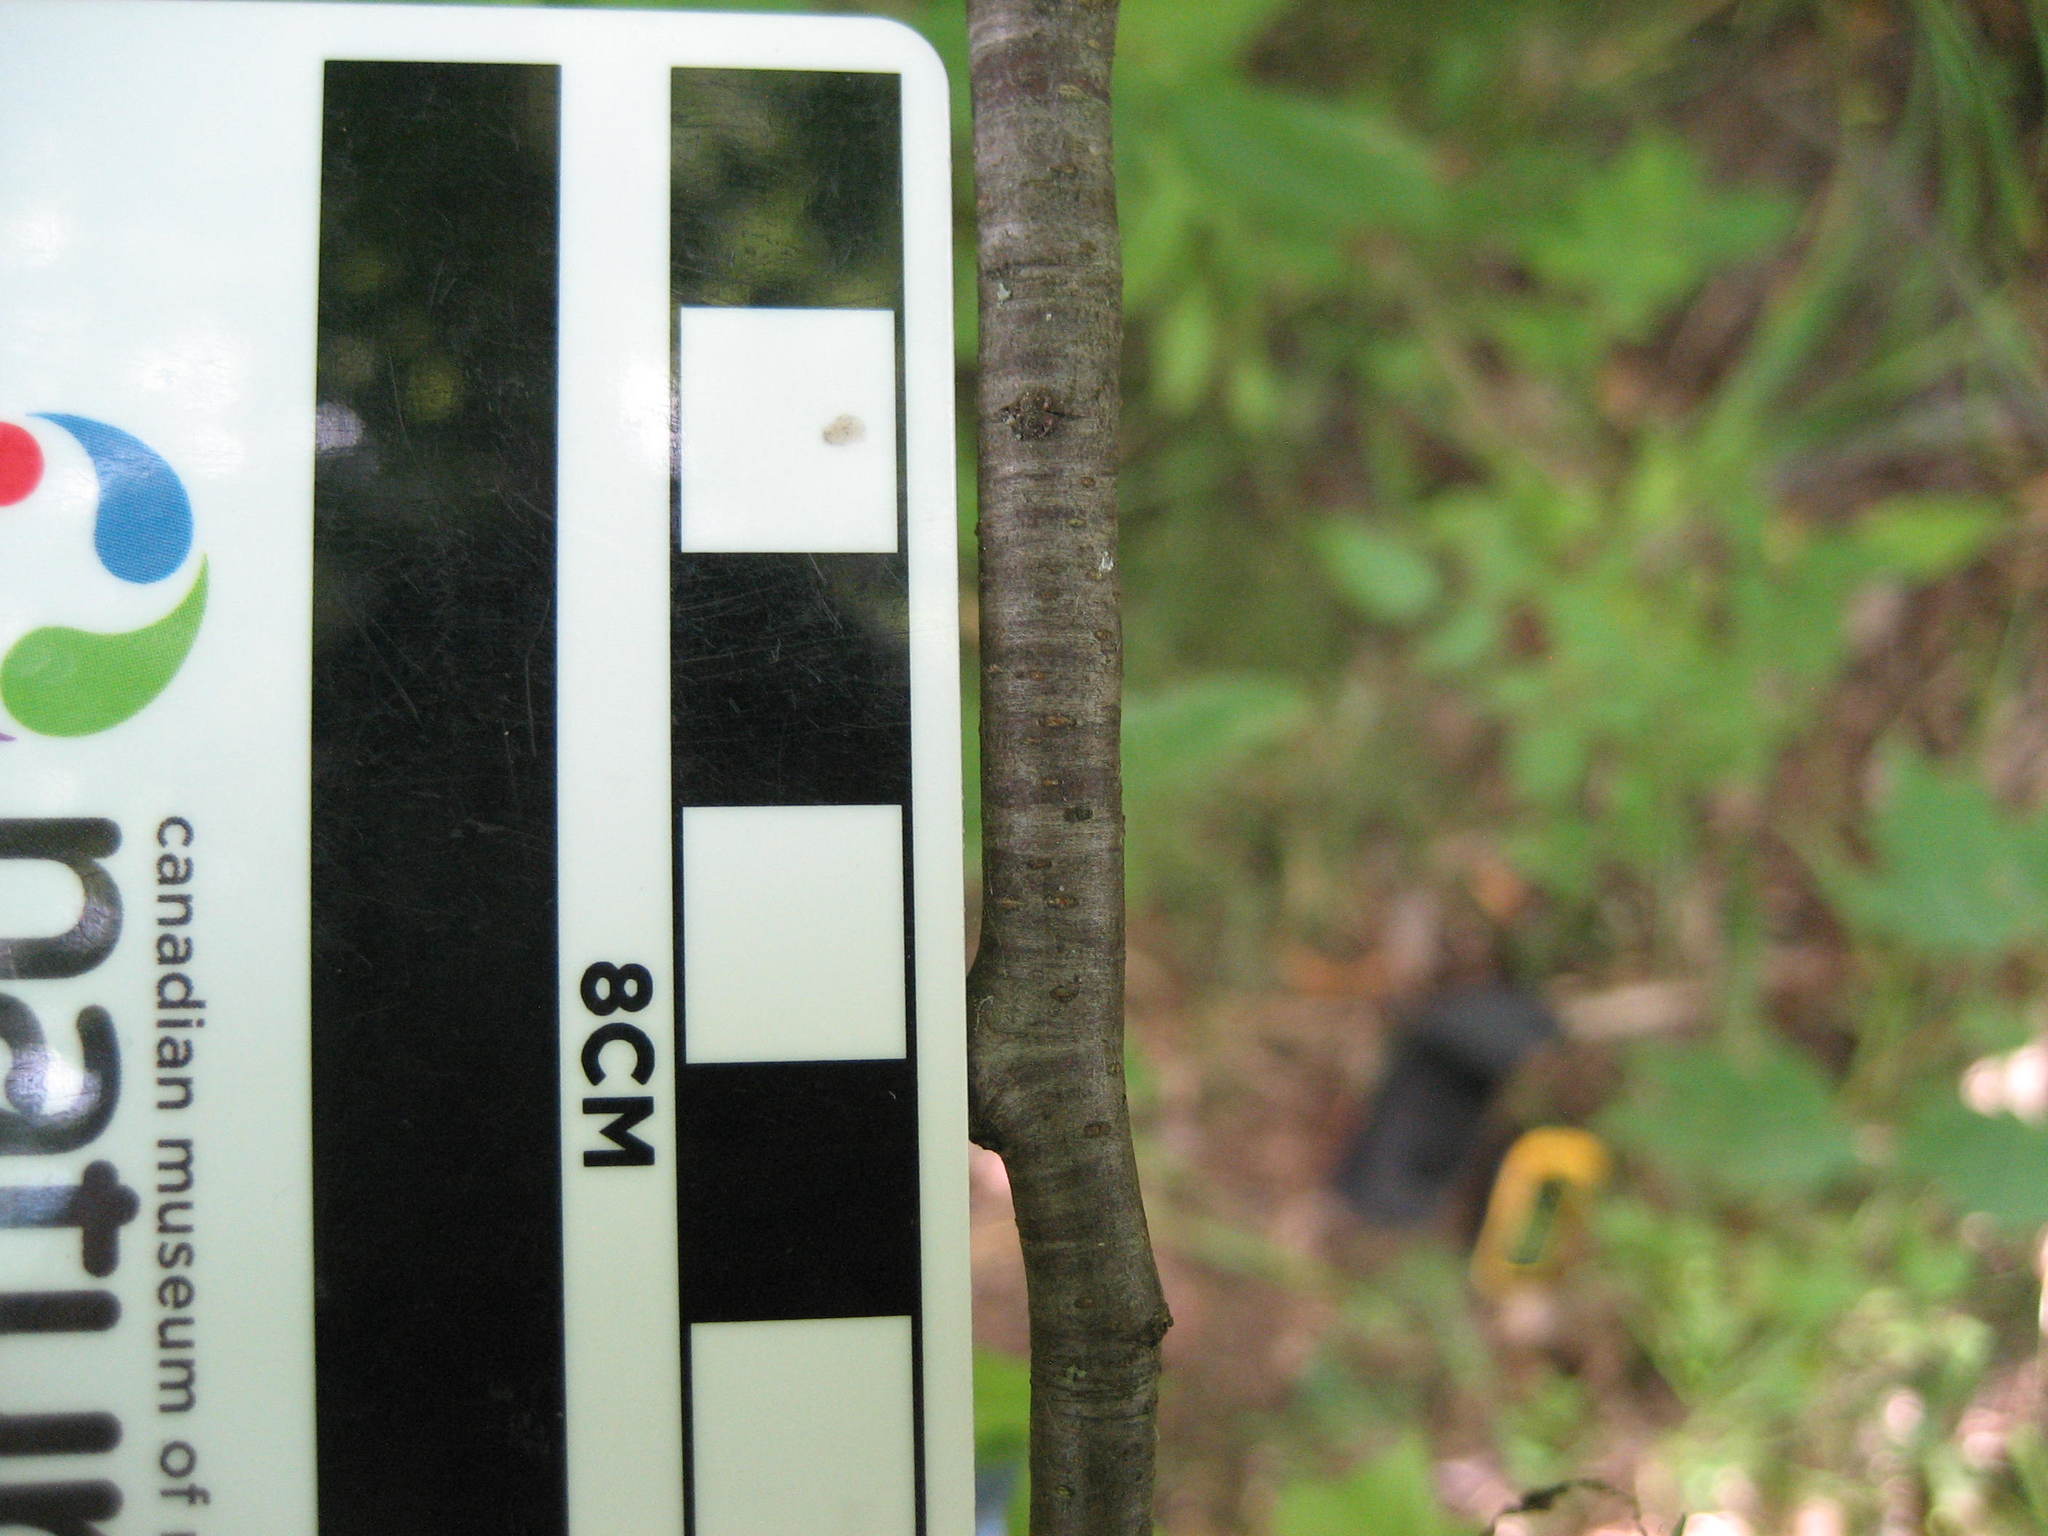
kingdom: Plantae
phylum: Tracheophyta
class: Magnoliopsida
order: Rosales
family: Rosaceae
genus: Prunus
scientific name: Prunus serotina
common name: Black cherry
